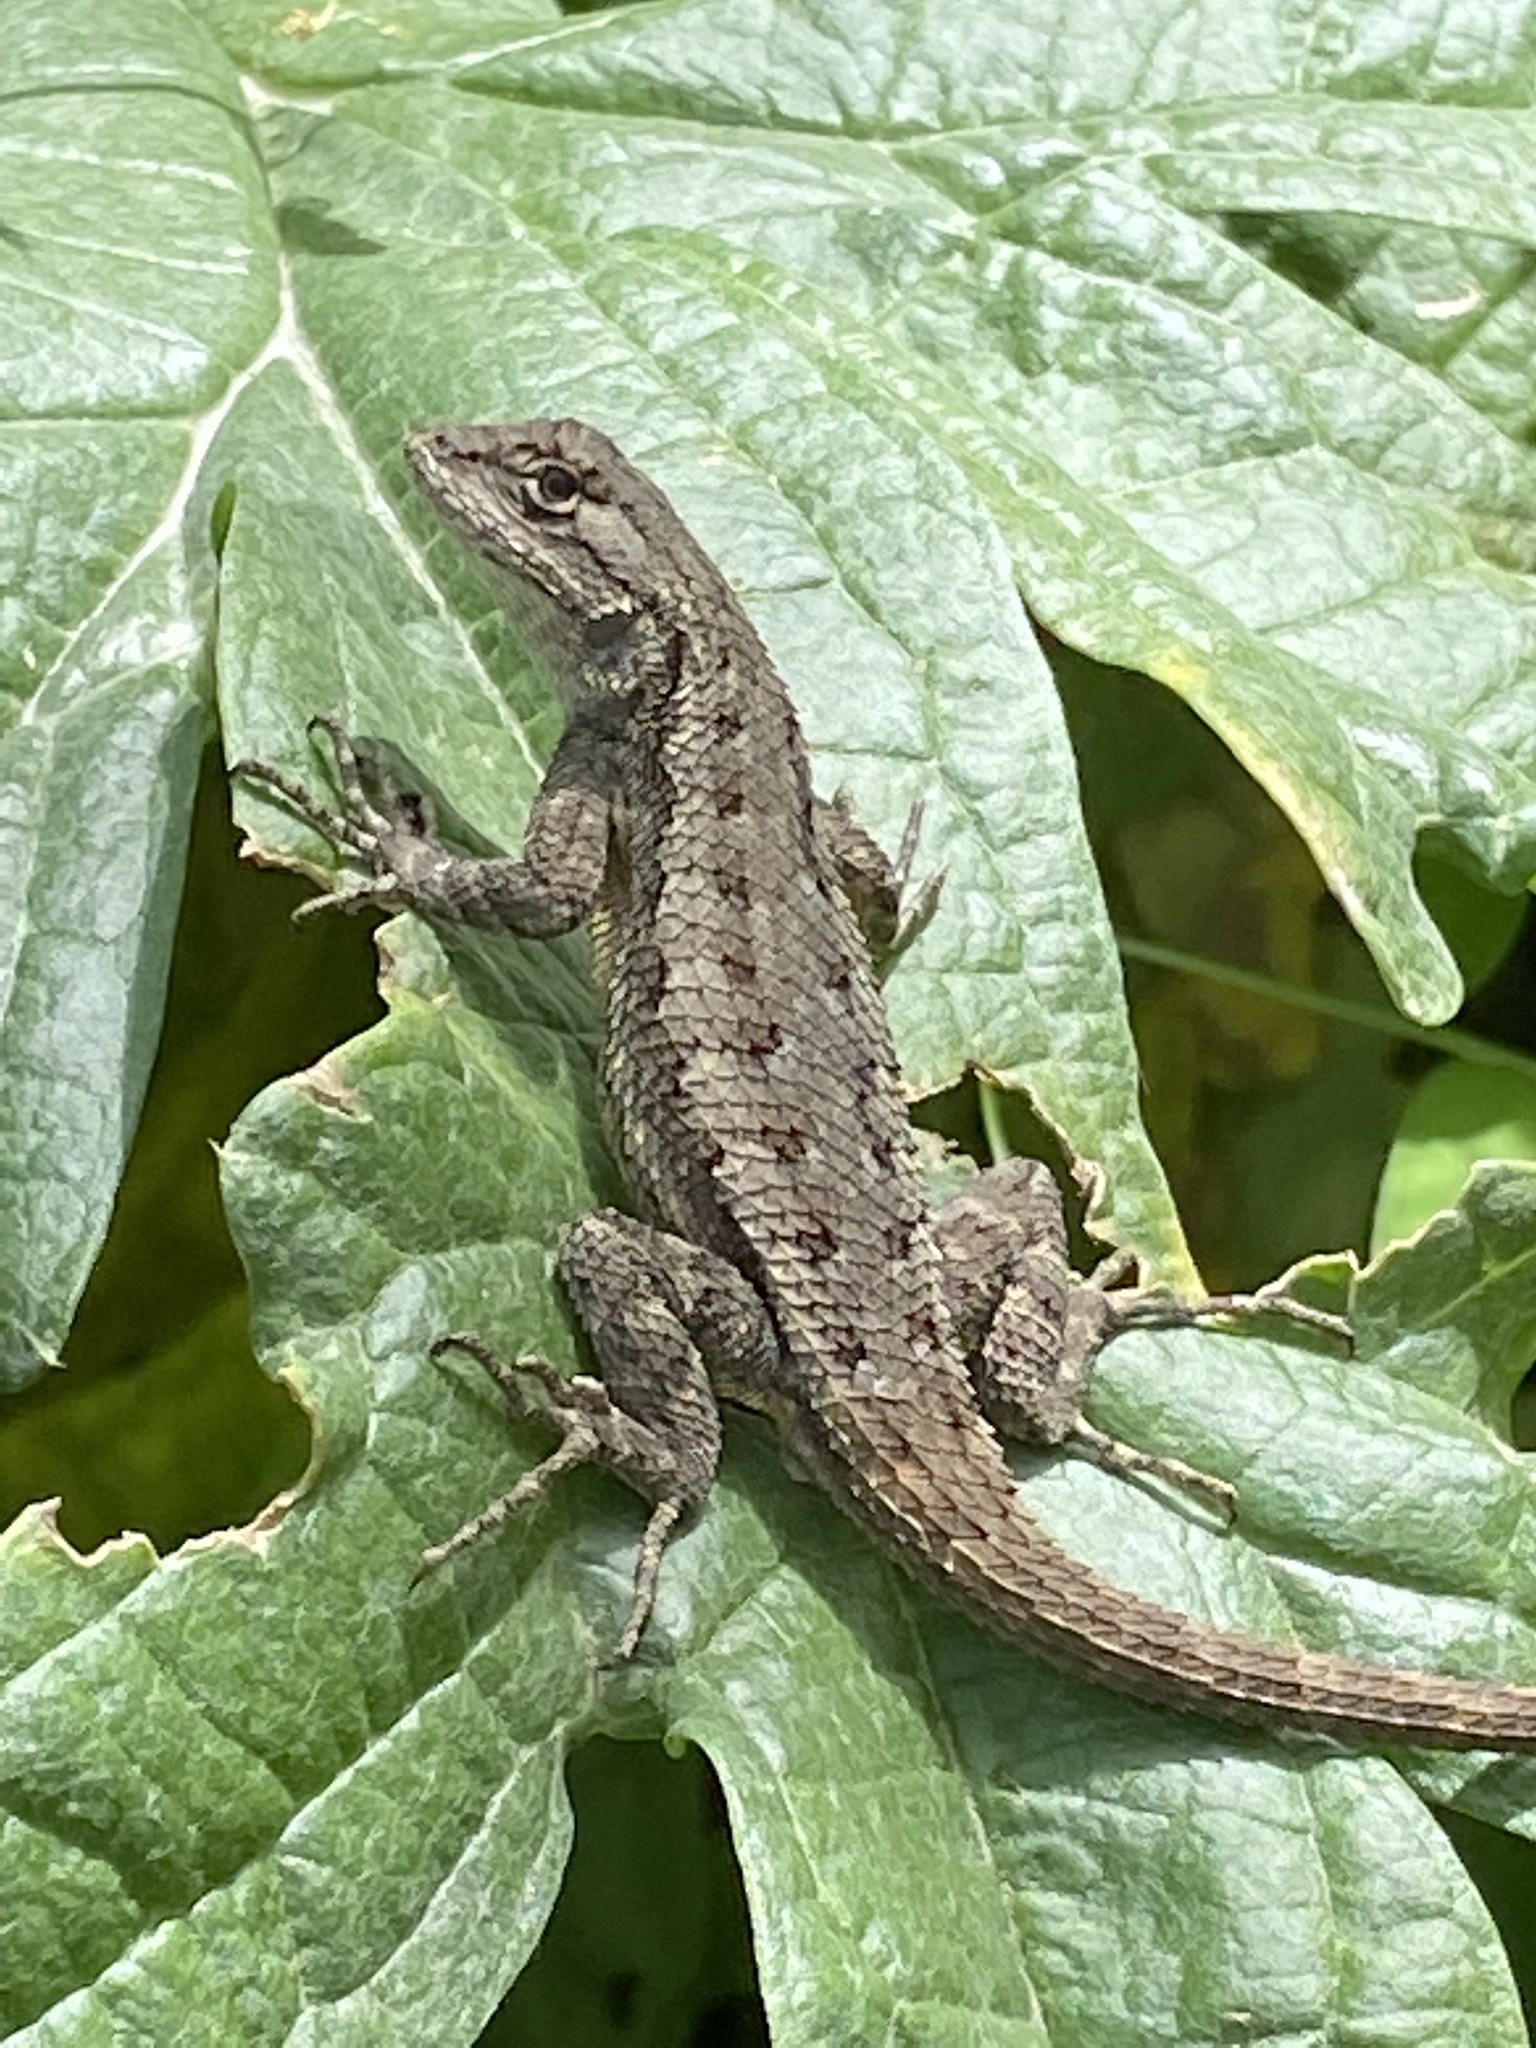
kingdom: Animalia
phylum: Chordata
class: Squamata
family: Phrynosomatidae
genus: Sceloporus
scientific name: Sceloporus occidentalis
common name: Western fence lizard
